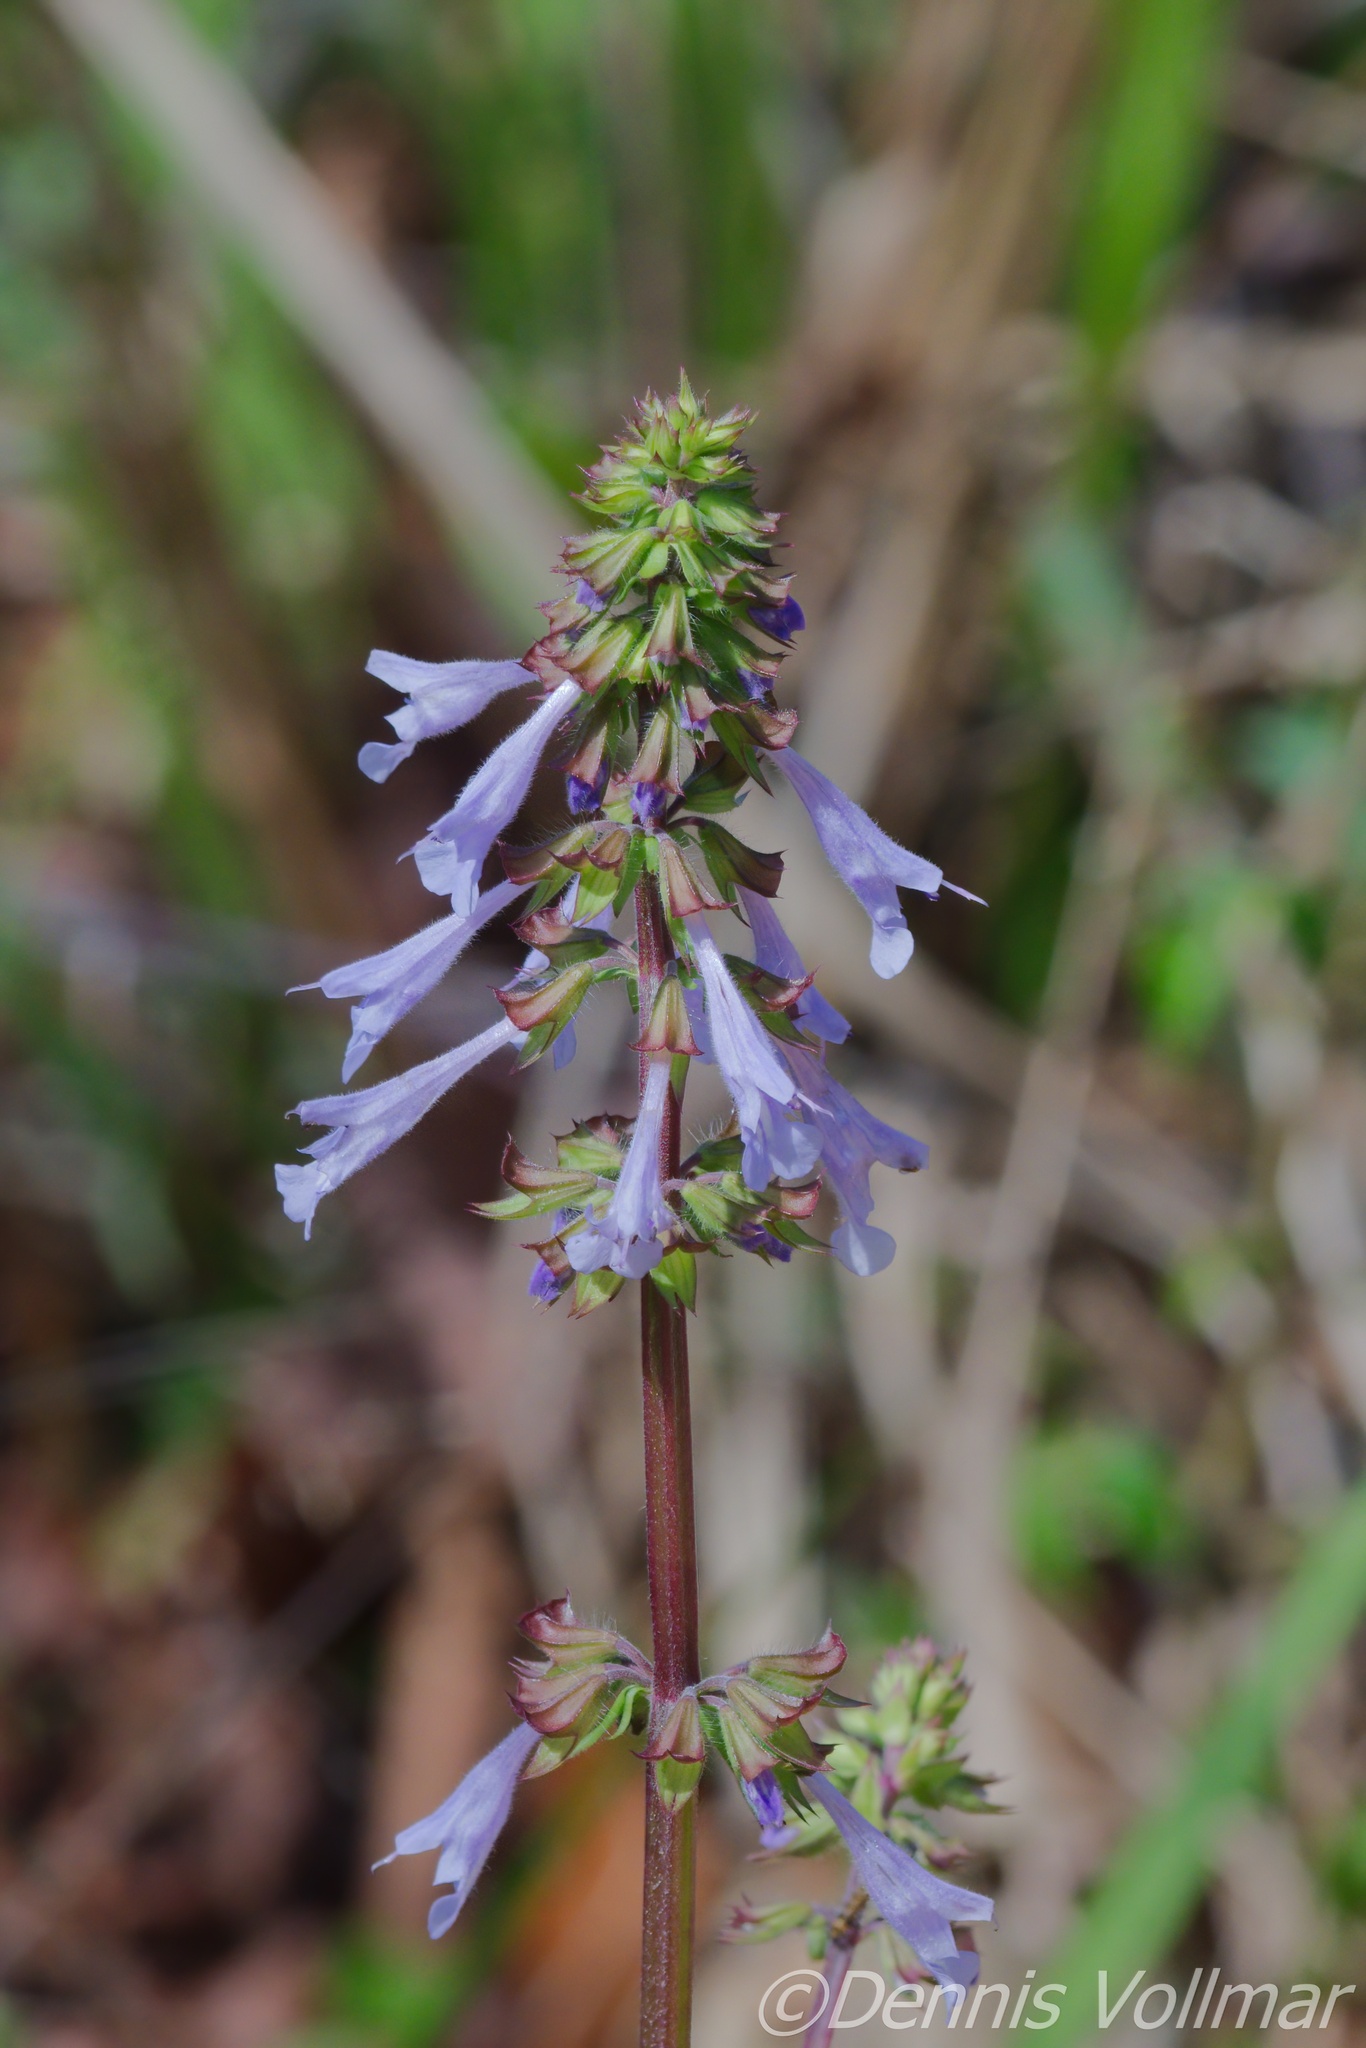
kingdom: Plantae
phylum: Tracheophyta
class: Magnoliopsida
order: Lamiales
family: Lamiaceae
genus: Salvia
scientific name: Salvia lyrata
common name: Cancerweed
